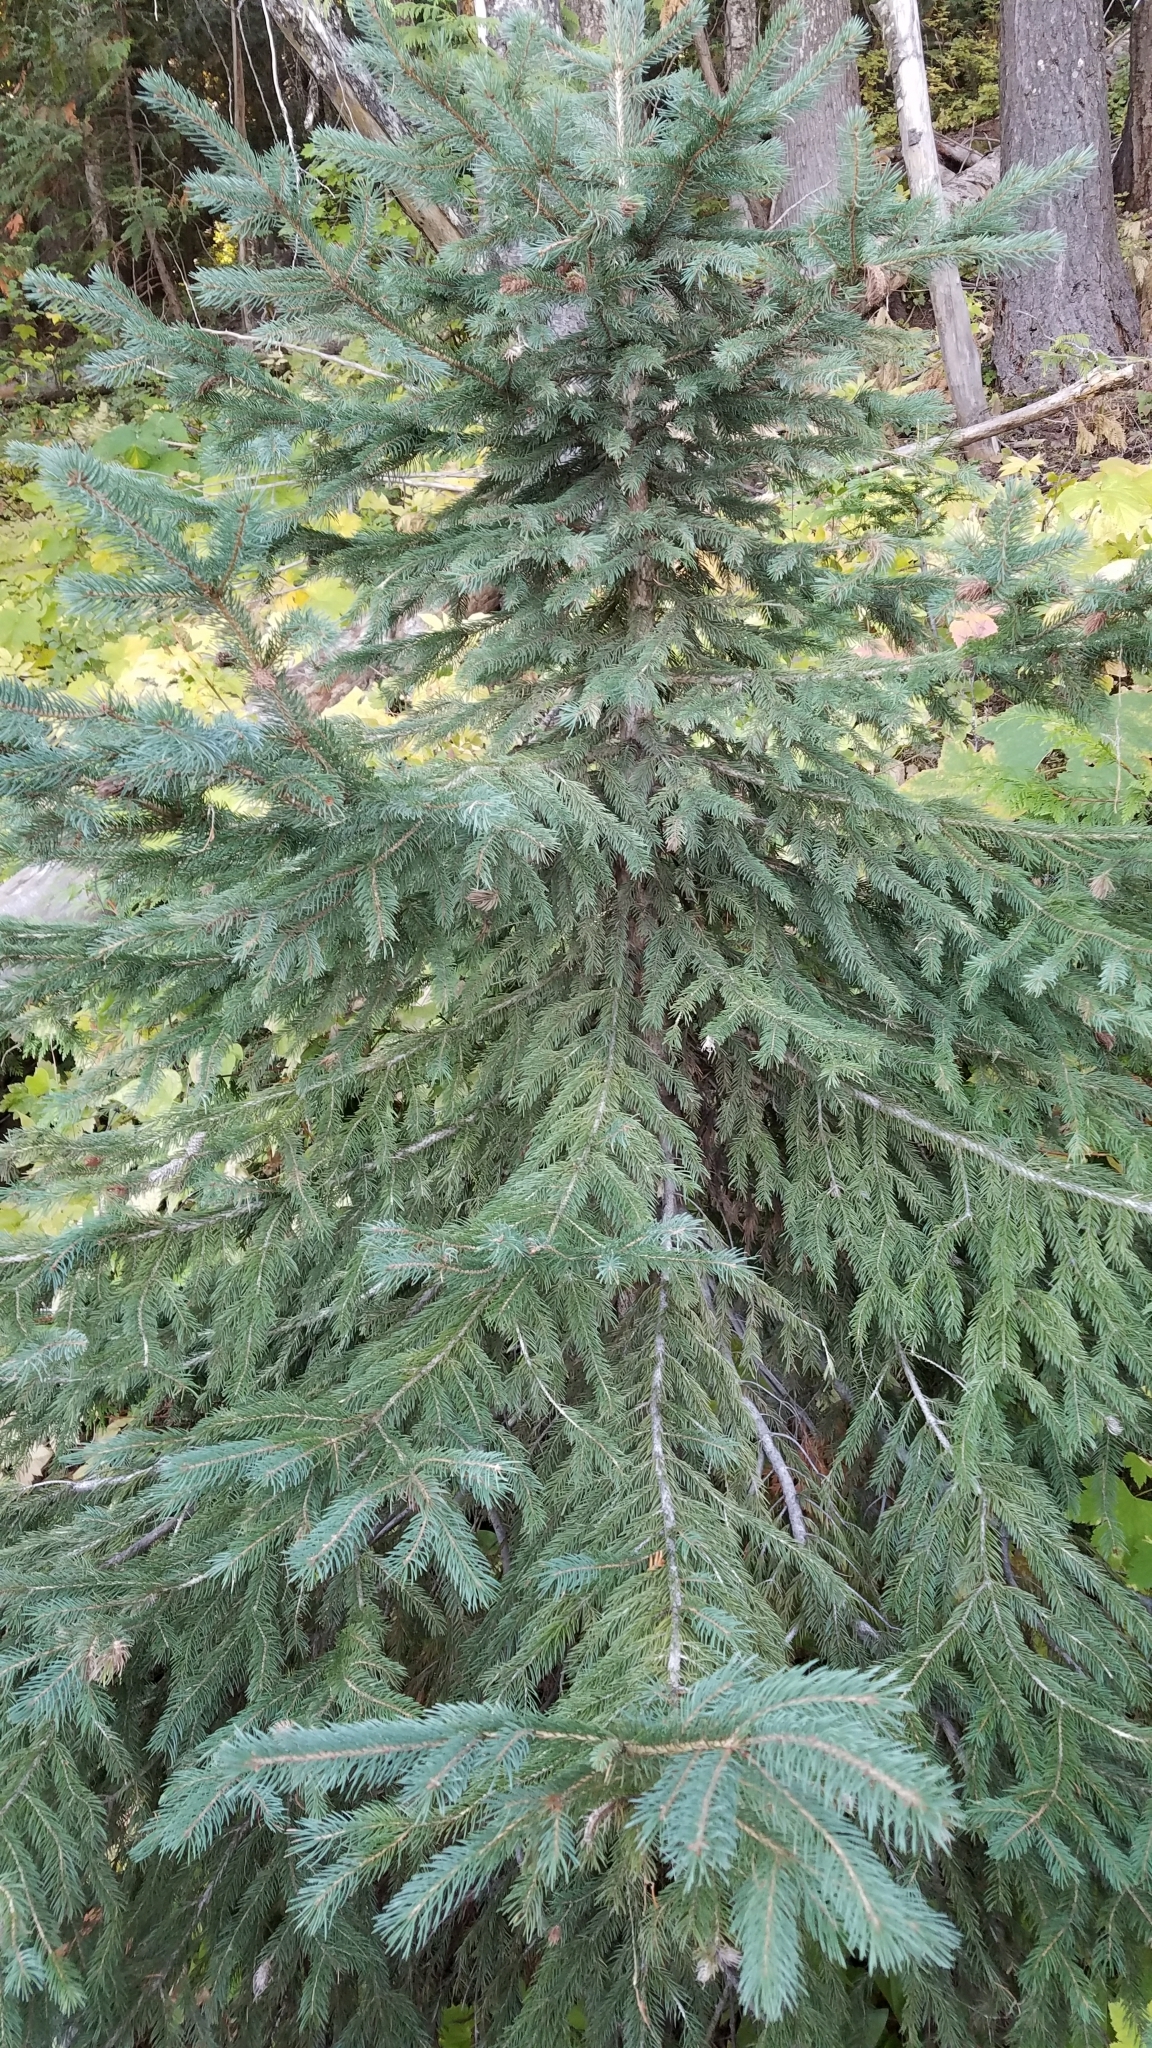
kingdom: Plantae
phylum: Tracheophyta
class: Pinopsida
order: Pinales
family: Pinaceae
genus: Picea
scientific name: Picea engelmannii
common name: Engelmann spruce
